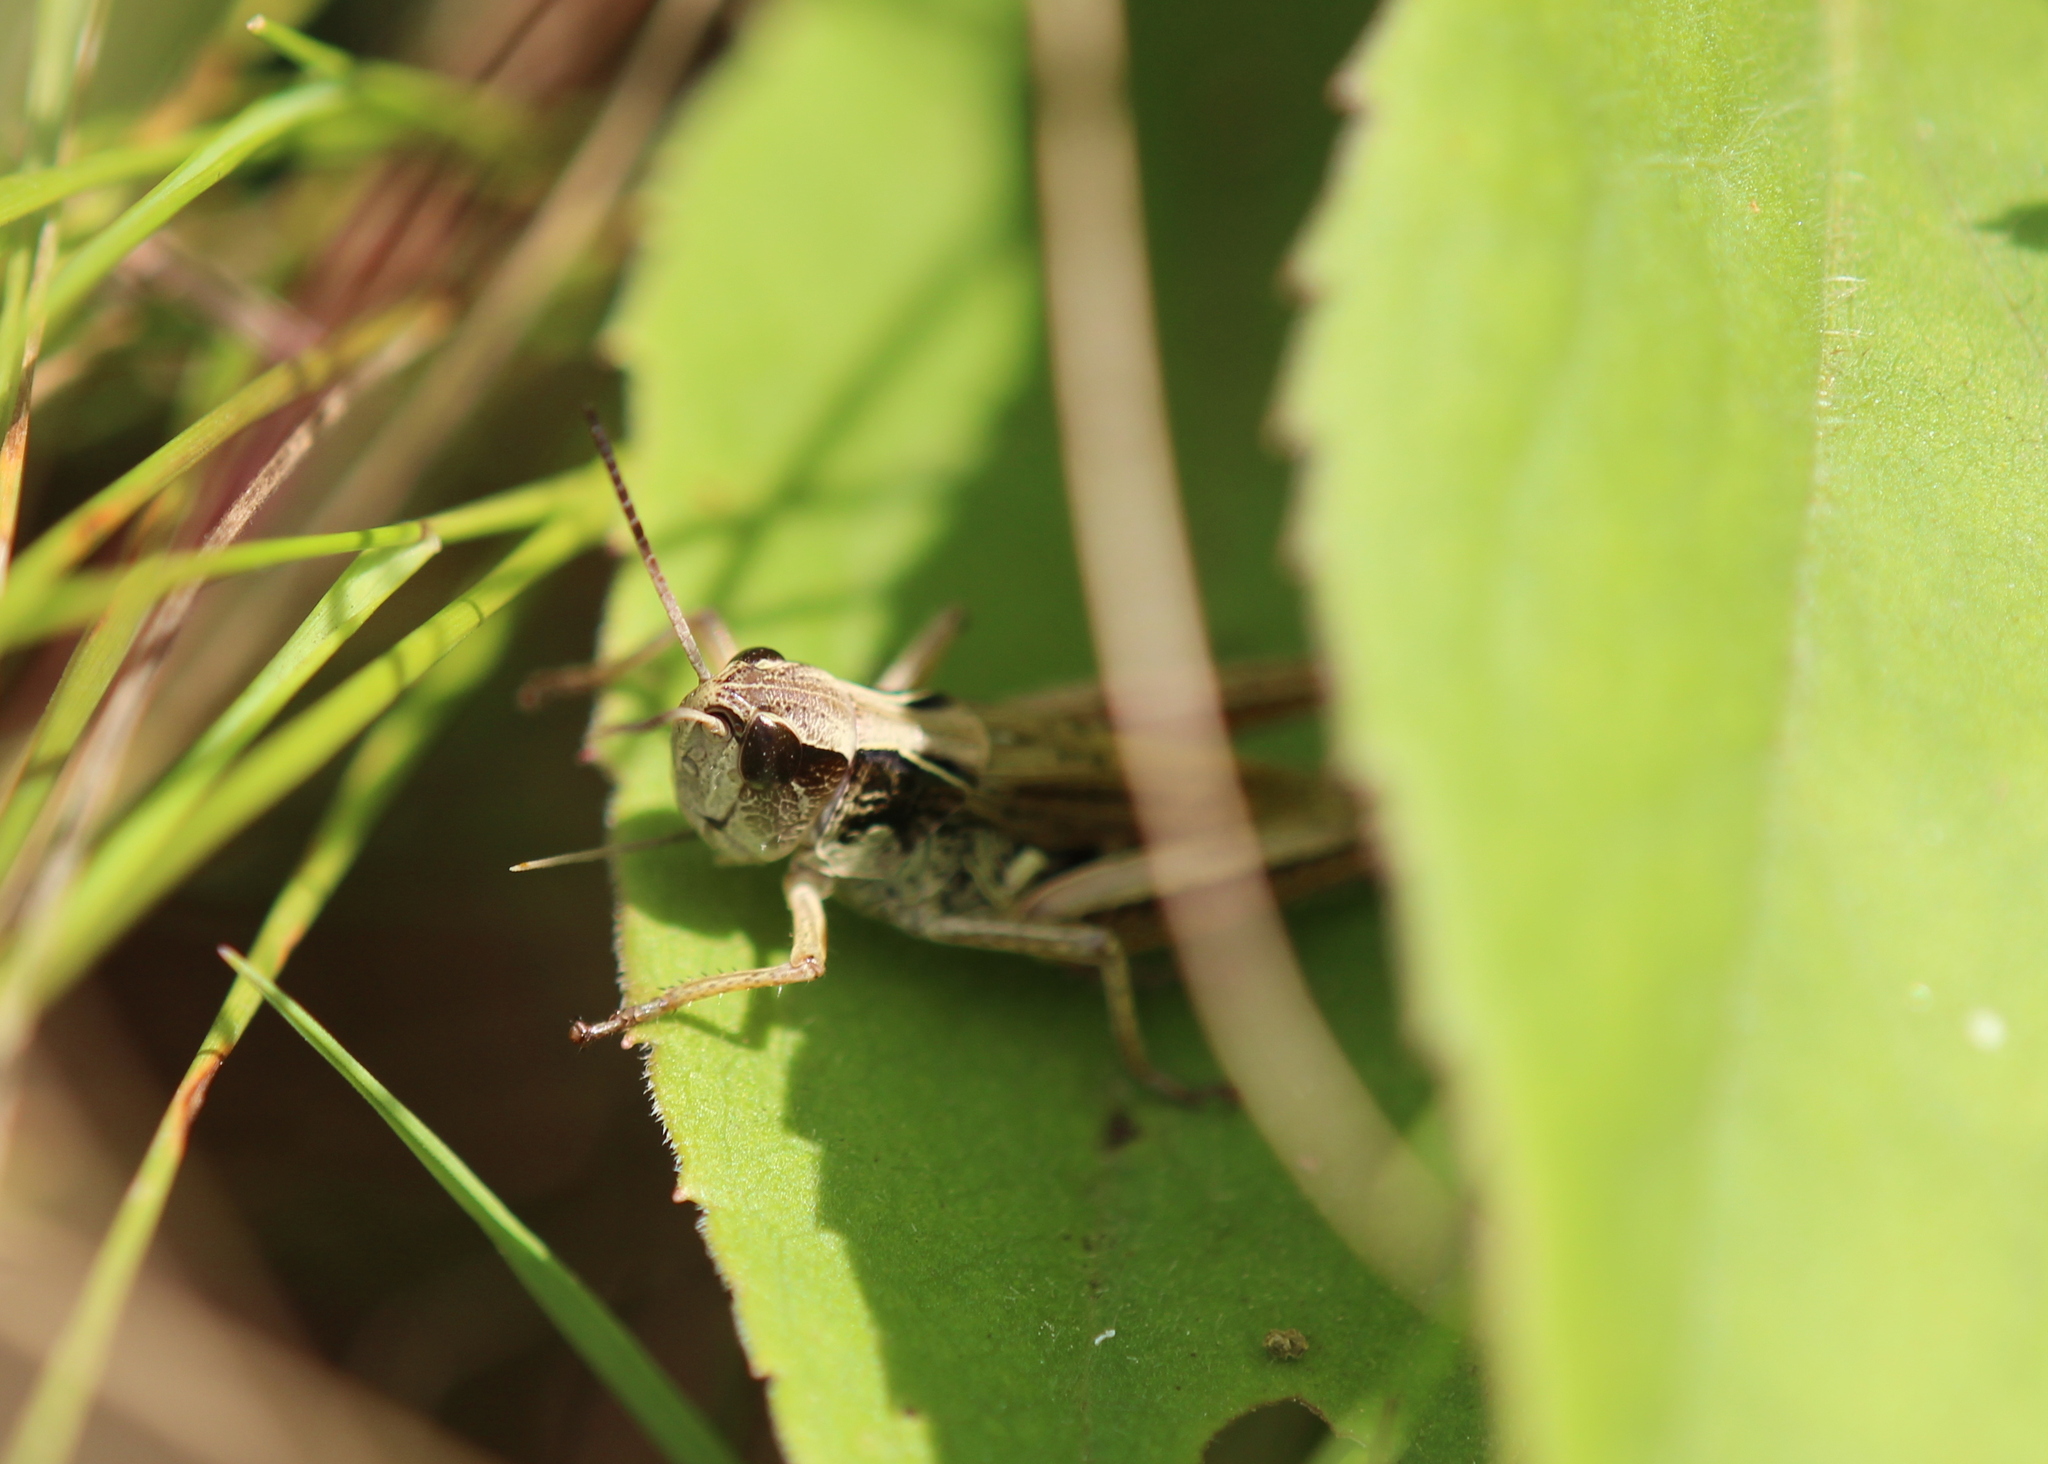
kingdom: Animalia
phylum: Arthropoda
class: Insecta
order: Orthoptera
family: Acrididae
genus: Pseudochorthippus
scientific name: Pseudochorthippus curtipennis
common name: Marsh meadow grasshopper
